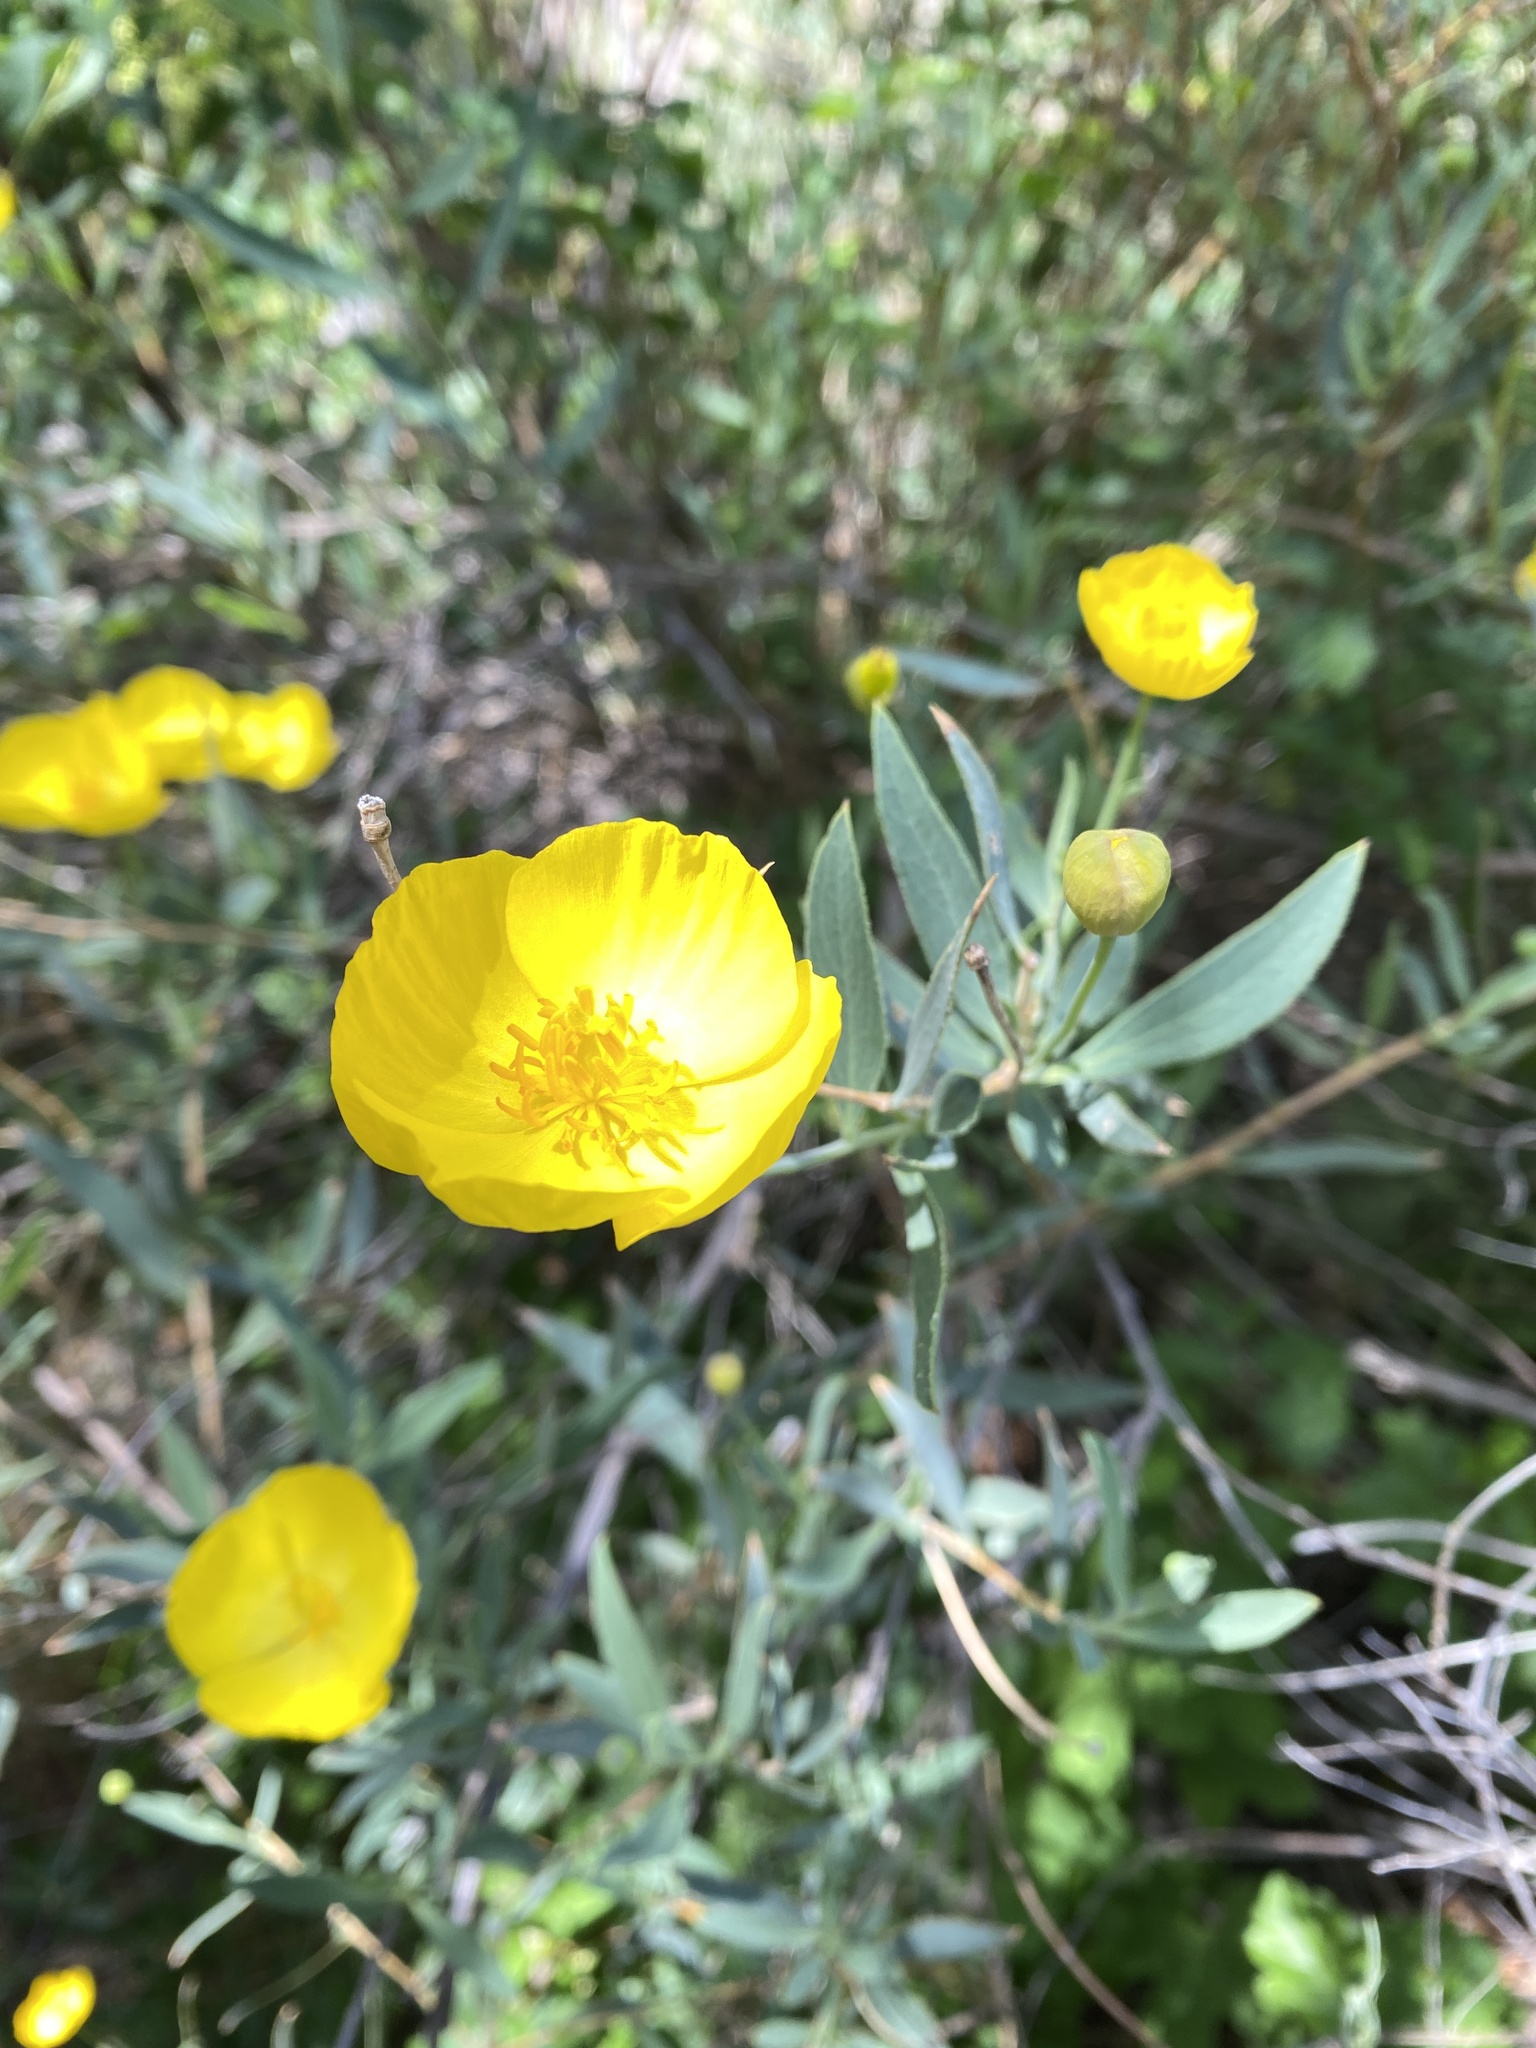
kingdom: Plantae
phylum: Tracheophyta
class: Magnoliopsida
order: Ranunculales
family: Papaveraceae
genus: Dendromecon
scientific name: Dendromecon rigida
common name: Tree poppy
